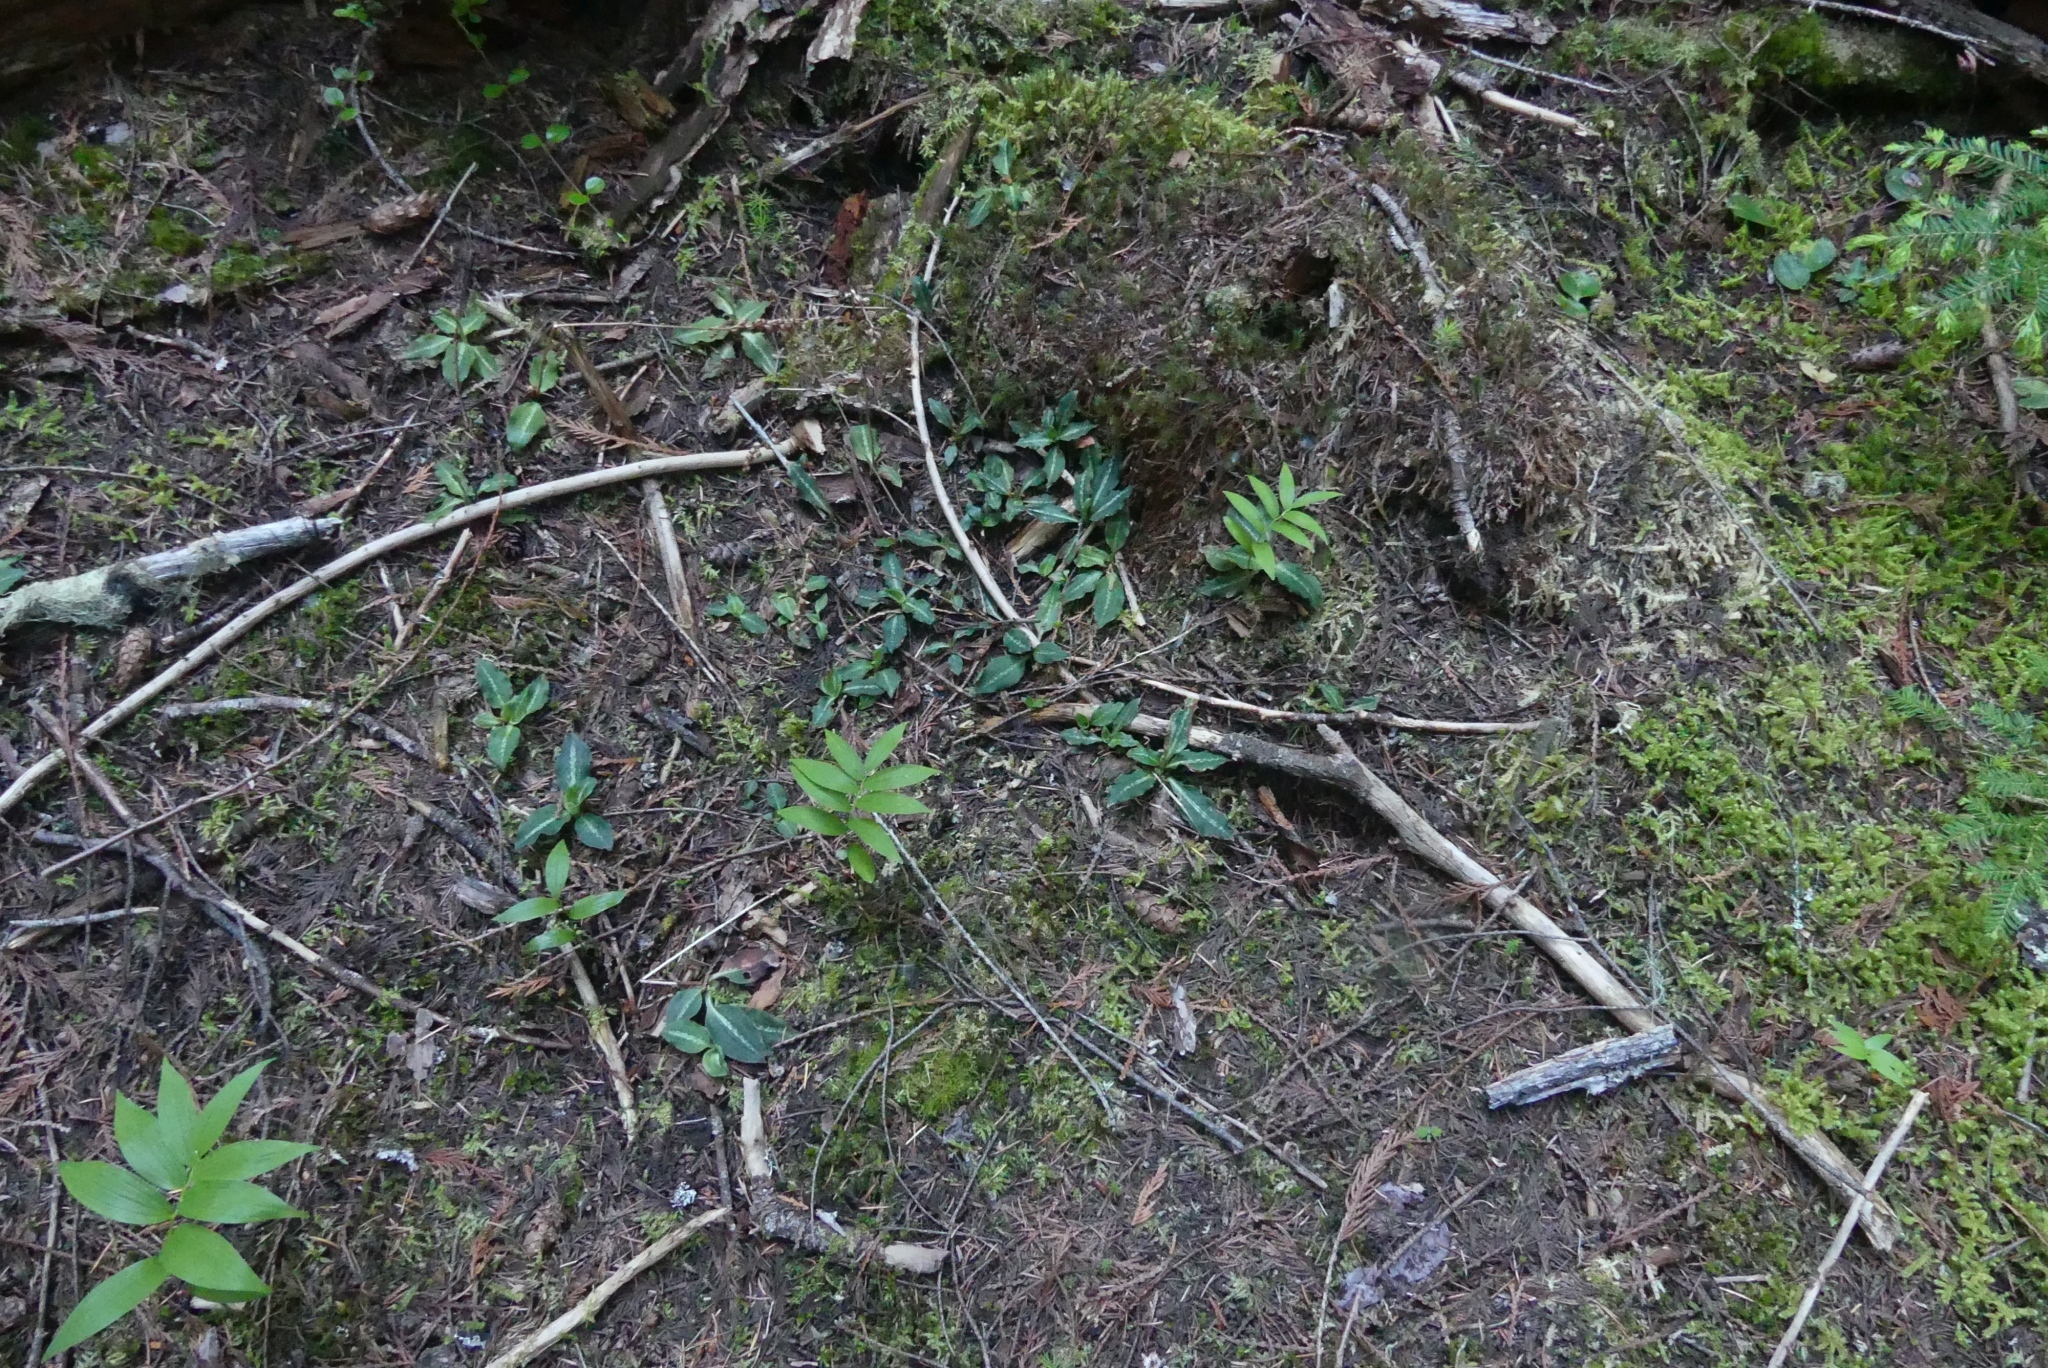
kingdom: Plantae
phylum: Tracheophyta
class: Liliopsida
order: Asparagales
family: Orchidaceae
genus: Goodyera
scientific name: Goodyera oblongifolia
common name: Giant rattlesnake-plantain
